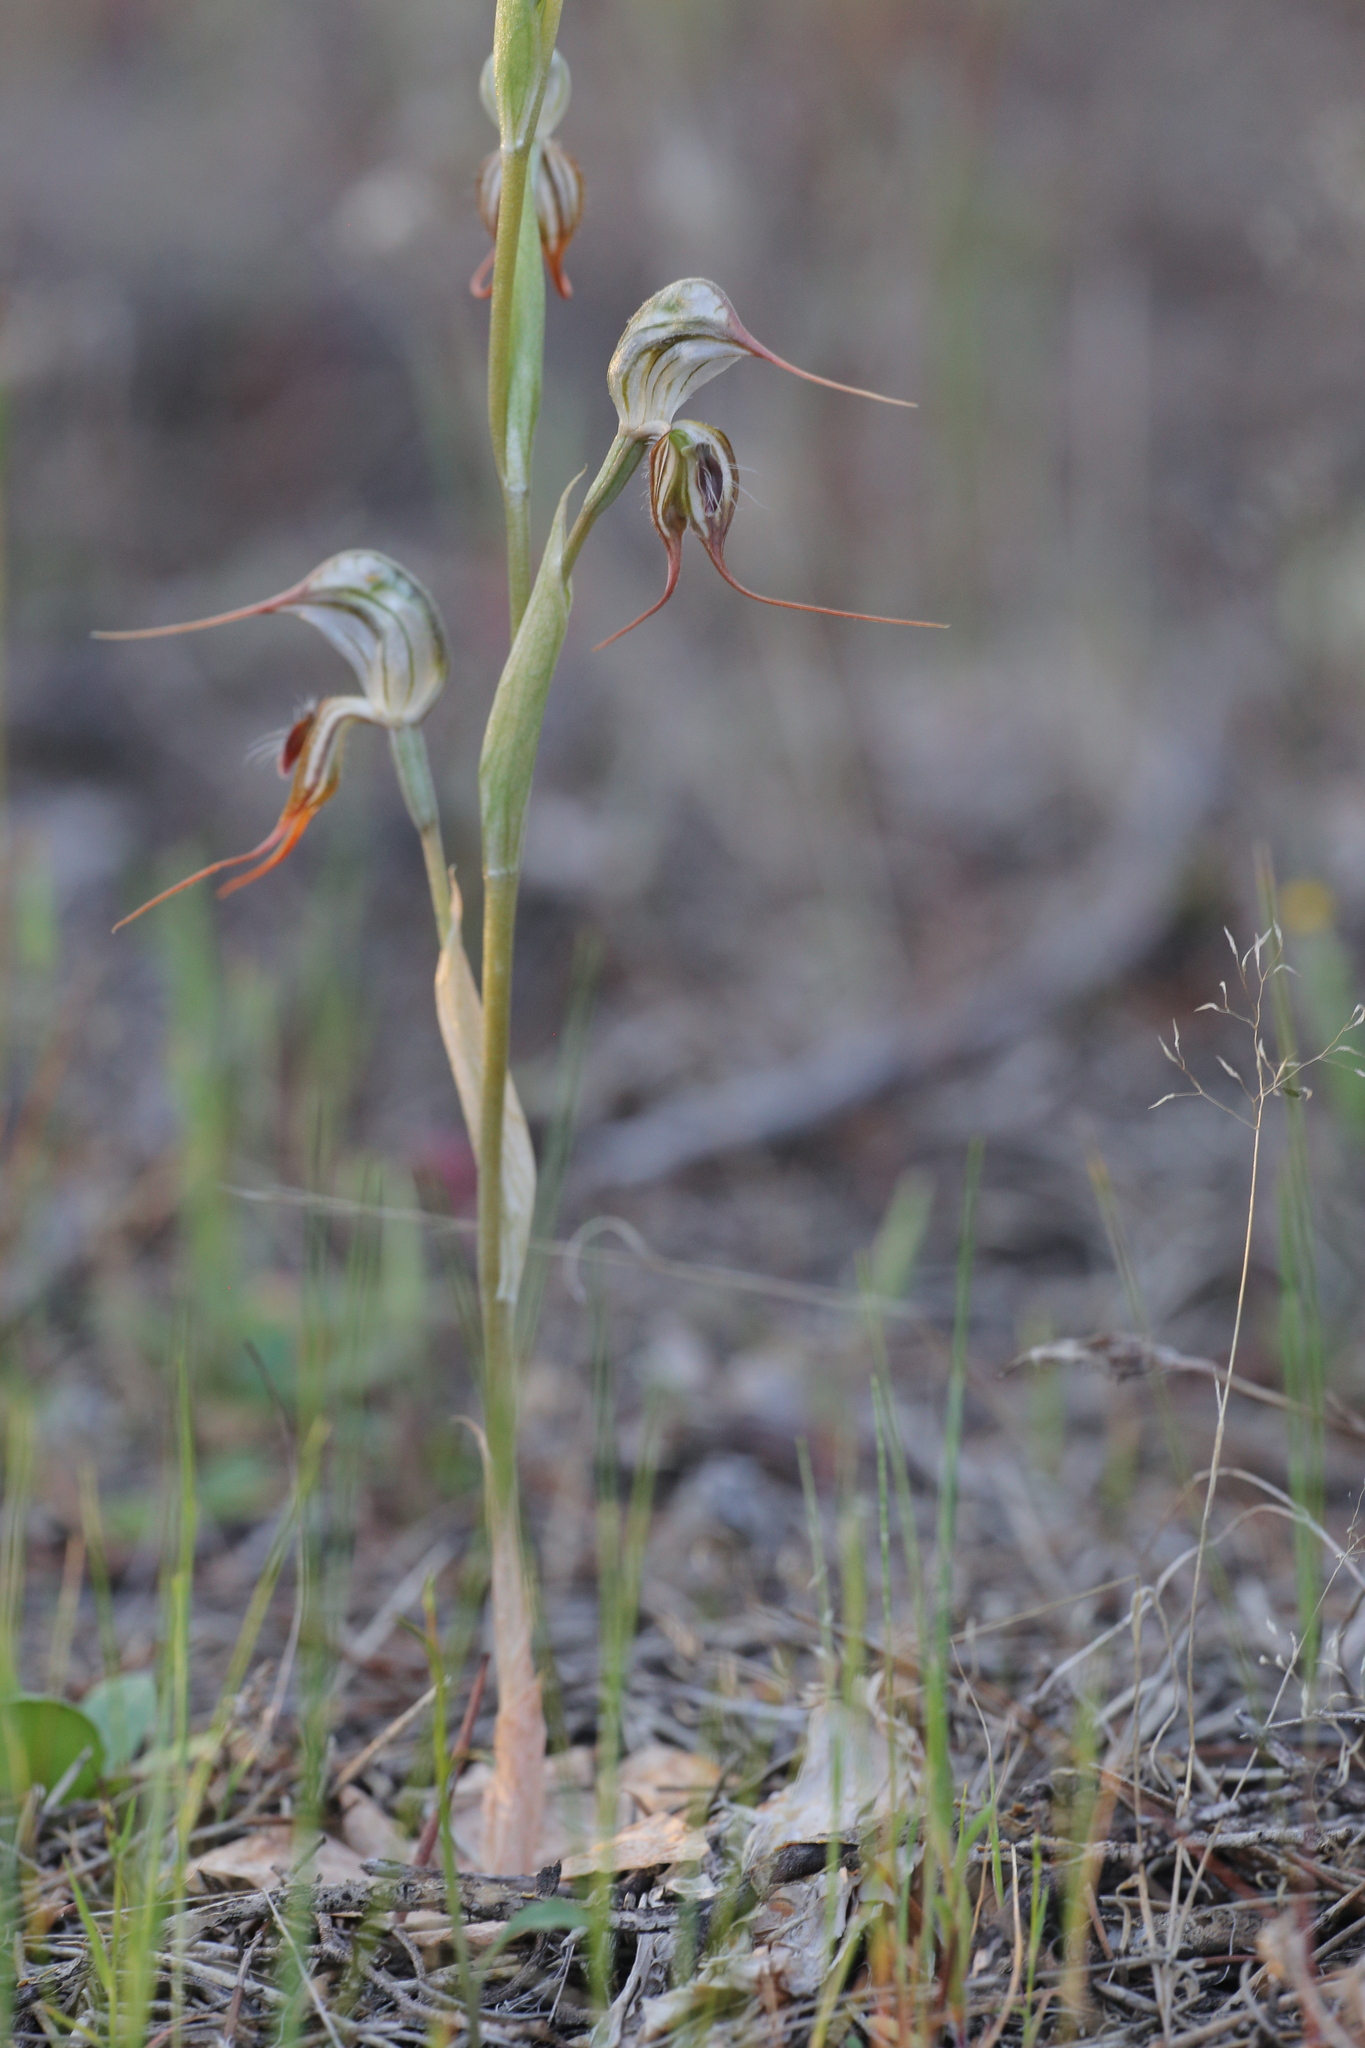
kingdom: Plantae
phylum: Tracheophyta
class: Liliopsida
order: Asparagales
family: Orchidaceae
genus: Pterostylis
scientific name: Pterostylis exserta
